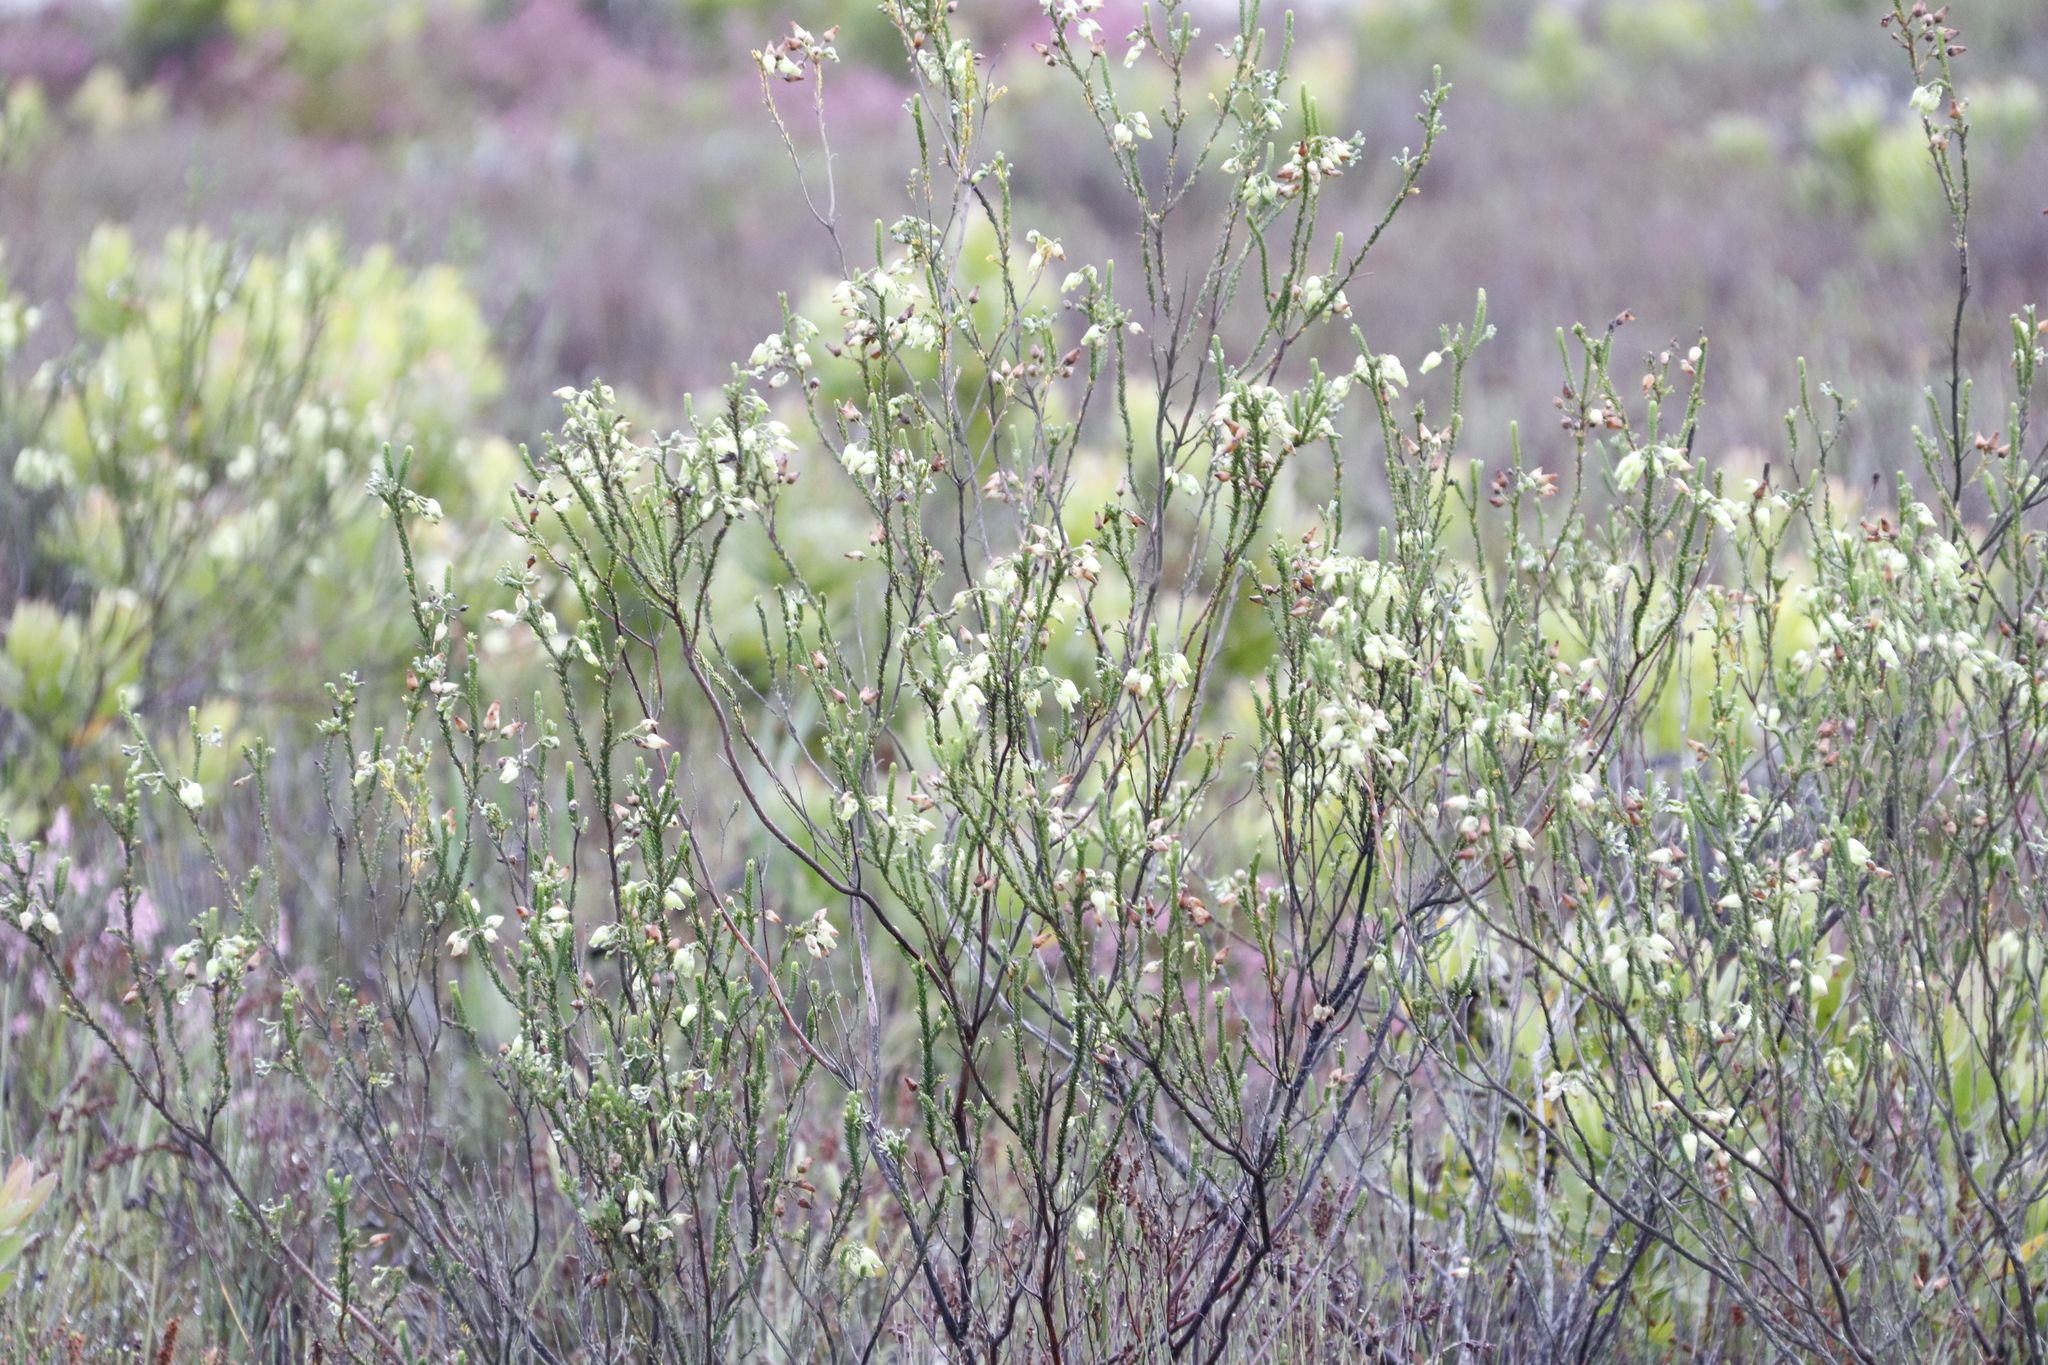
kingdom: Plantae
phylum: Tracheophyta
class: Magnoliopsida
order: Ericales
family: Ericaceae
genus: Erica
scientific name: Erica urna-viridis
